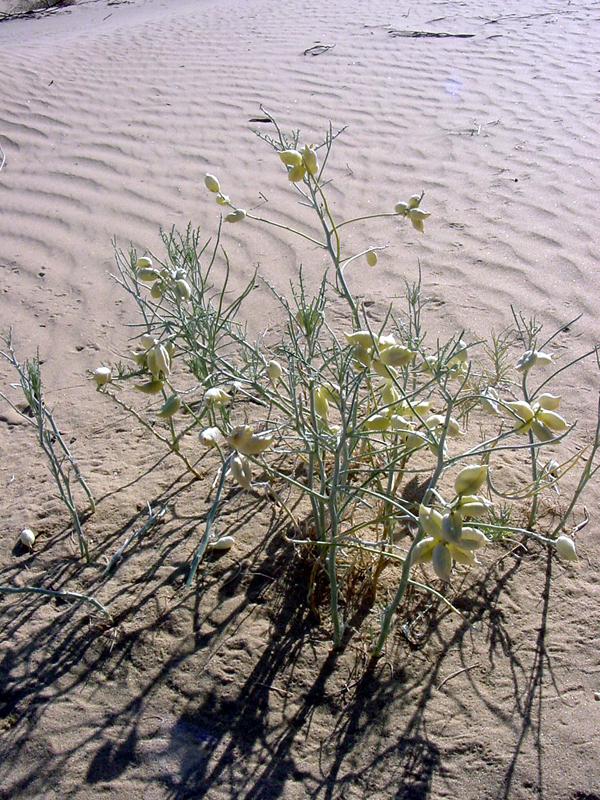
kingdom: Plantae
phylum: Tracheophyta
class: Magnoliopsida
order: Fabales
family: Fabaceae
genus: Astragalus
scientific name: Astragalus magdalenae
